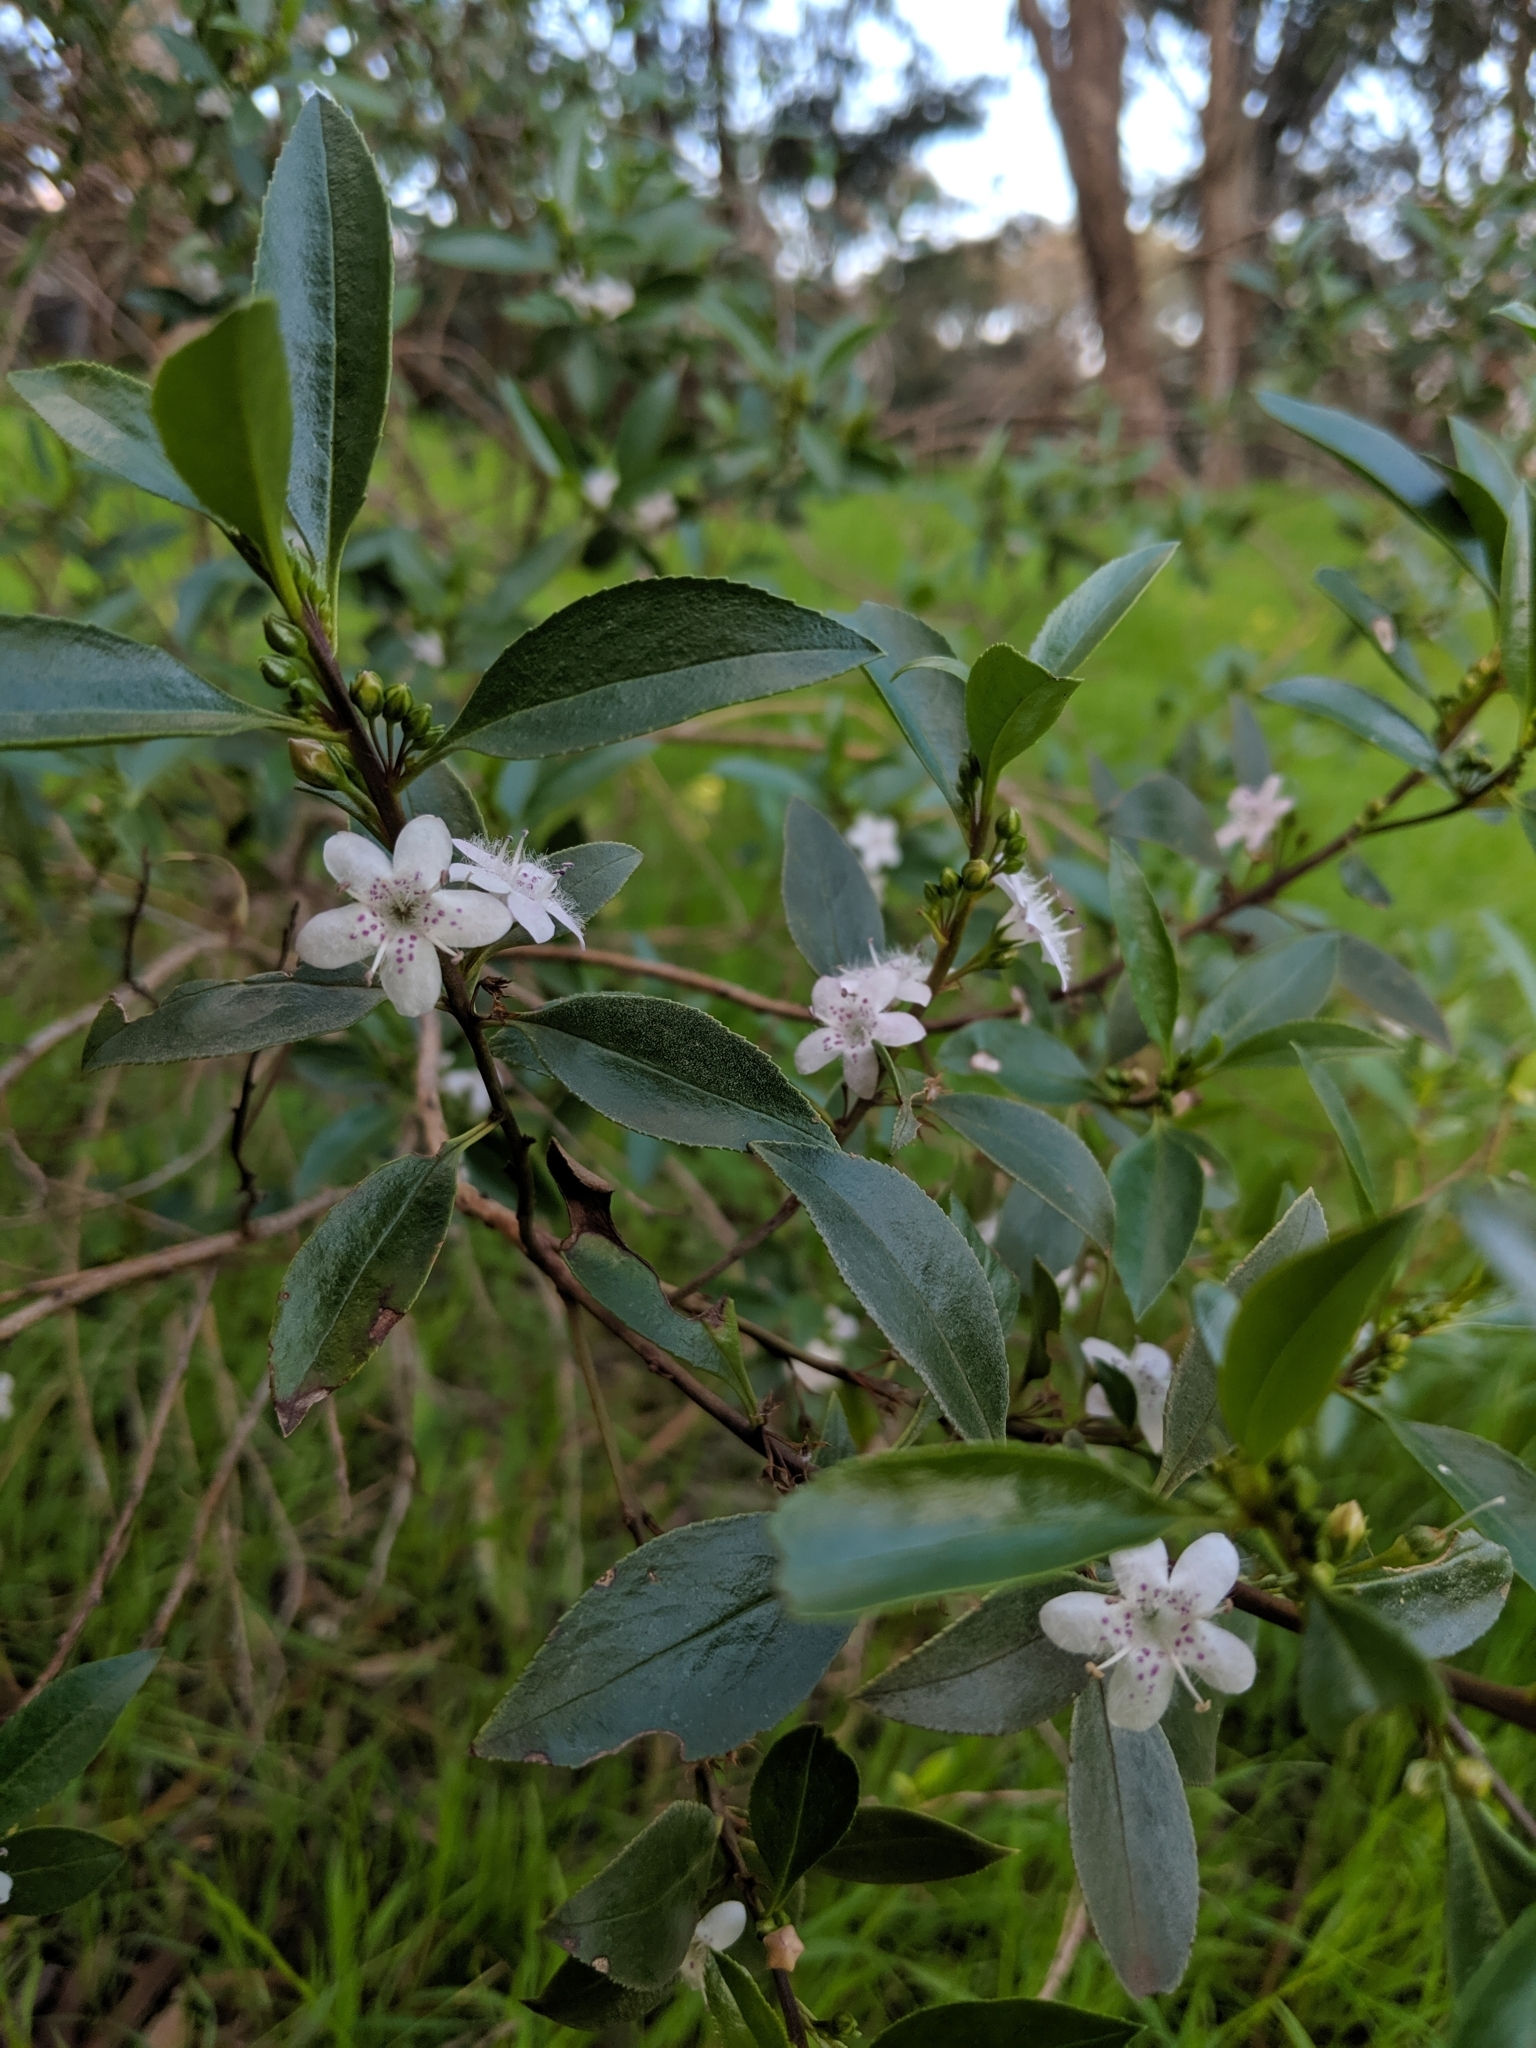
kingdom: Plantae
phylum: Tracheophyta
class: Magnoliopsida
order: Lamiales
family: Scrophulariaceae
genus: Myoporum
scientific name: Myoporum petiolatum
